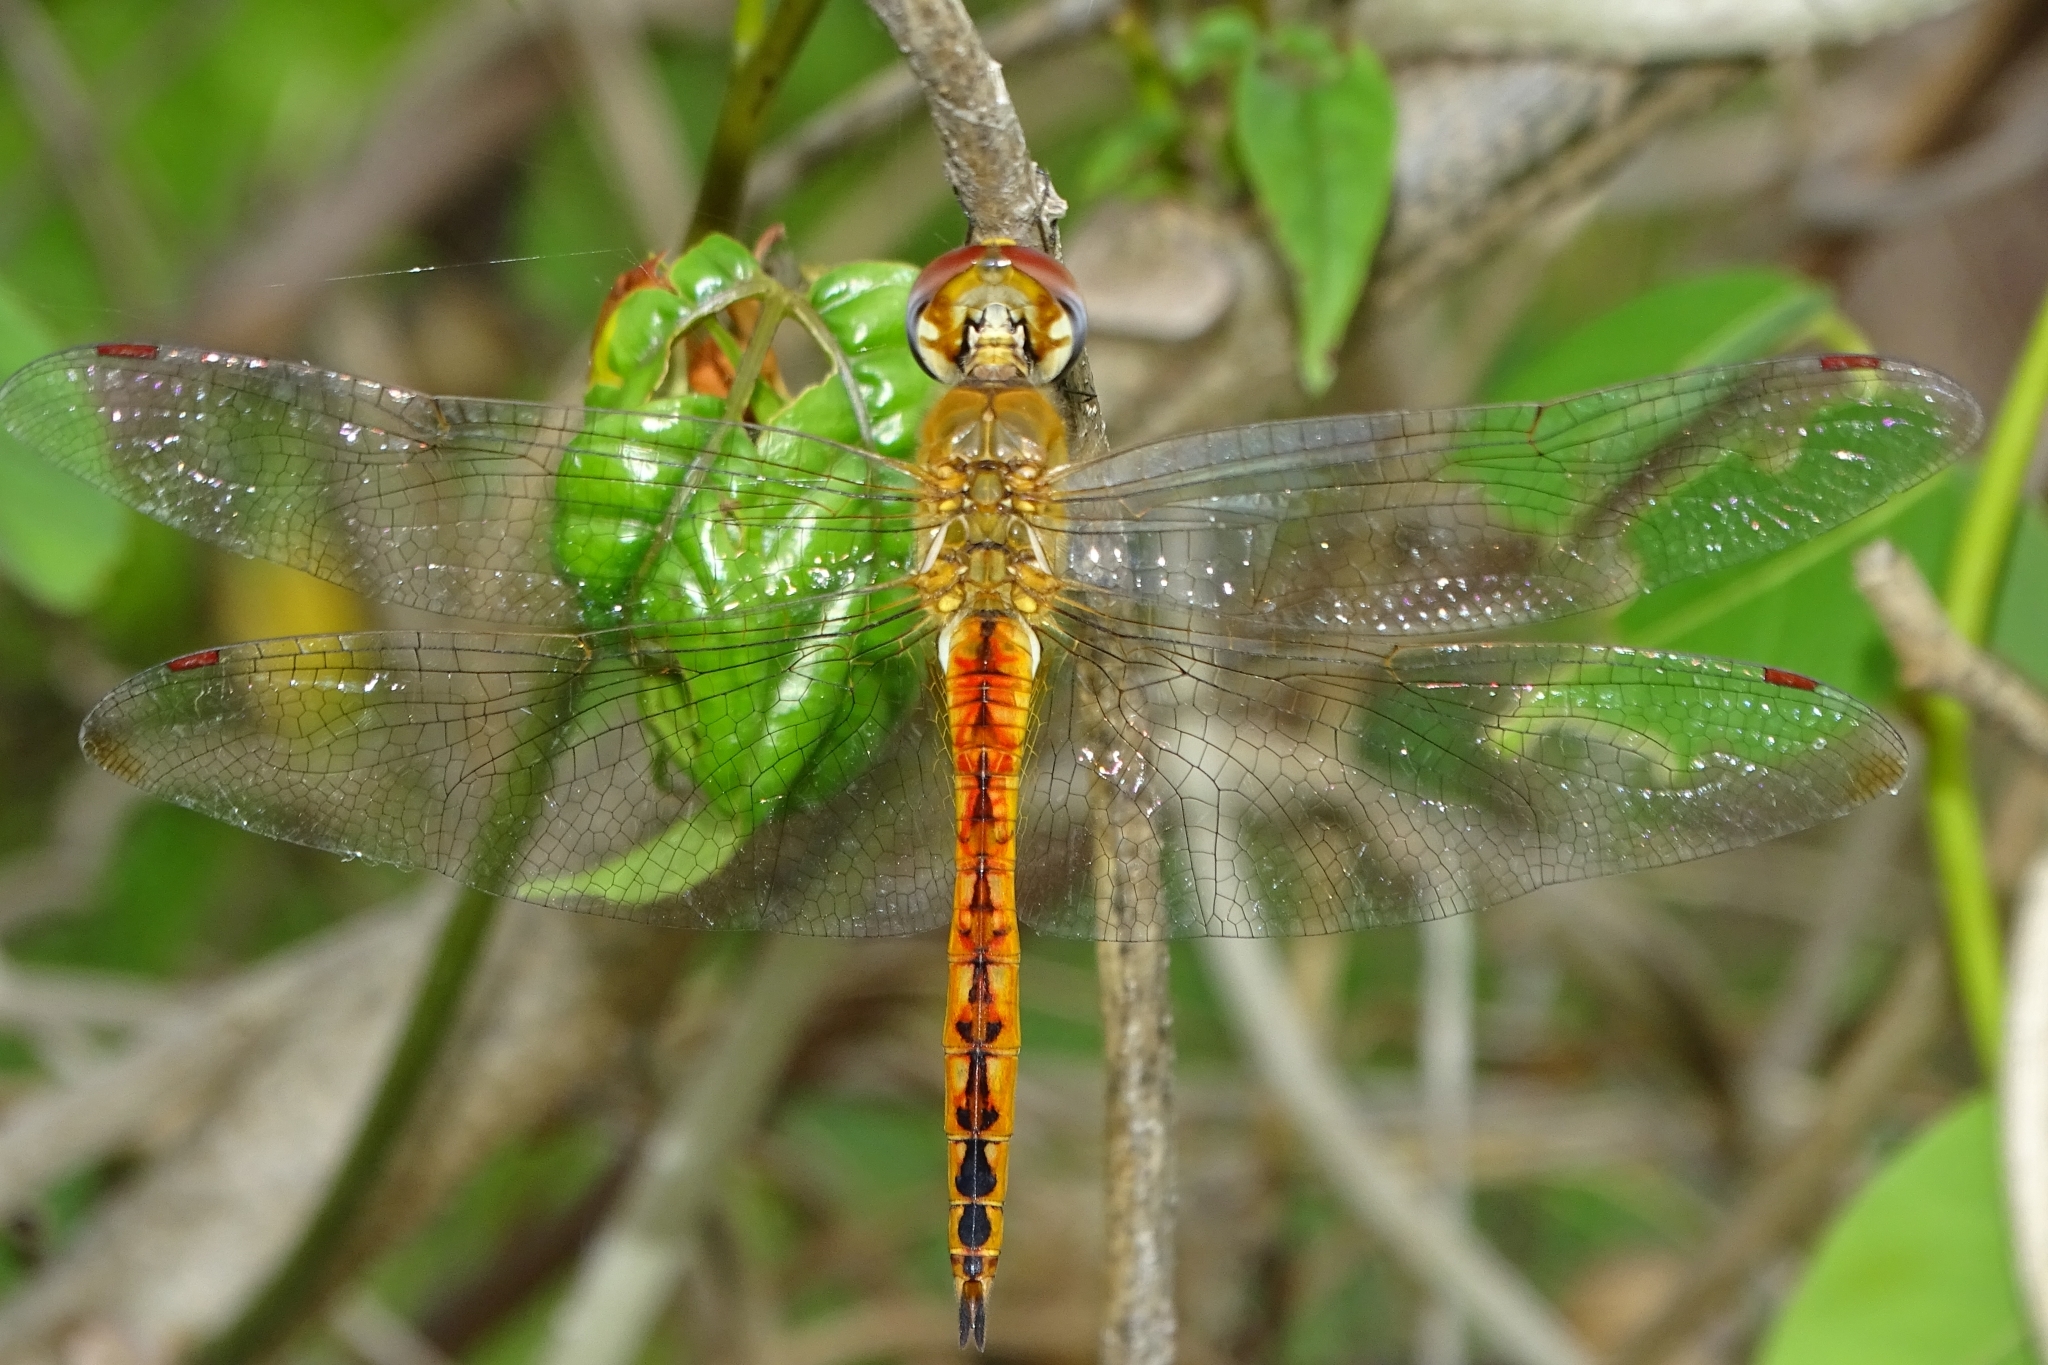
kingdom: Animalia
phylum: Arthropoda
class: Insecta
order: Odonata
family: Libellulidae
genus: Pantala
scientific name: Pantala flavescens
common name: Wandering glider
